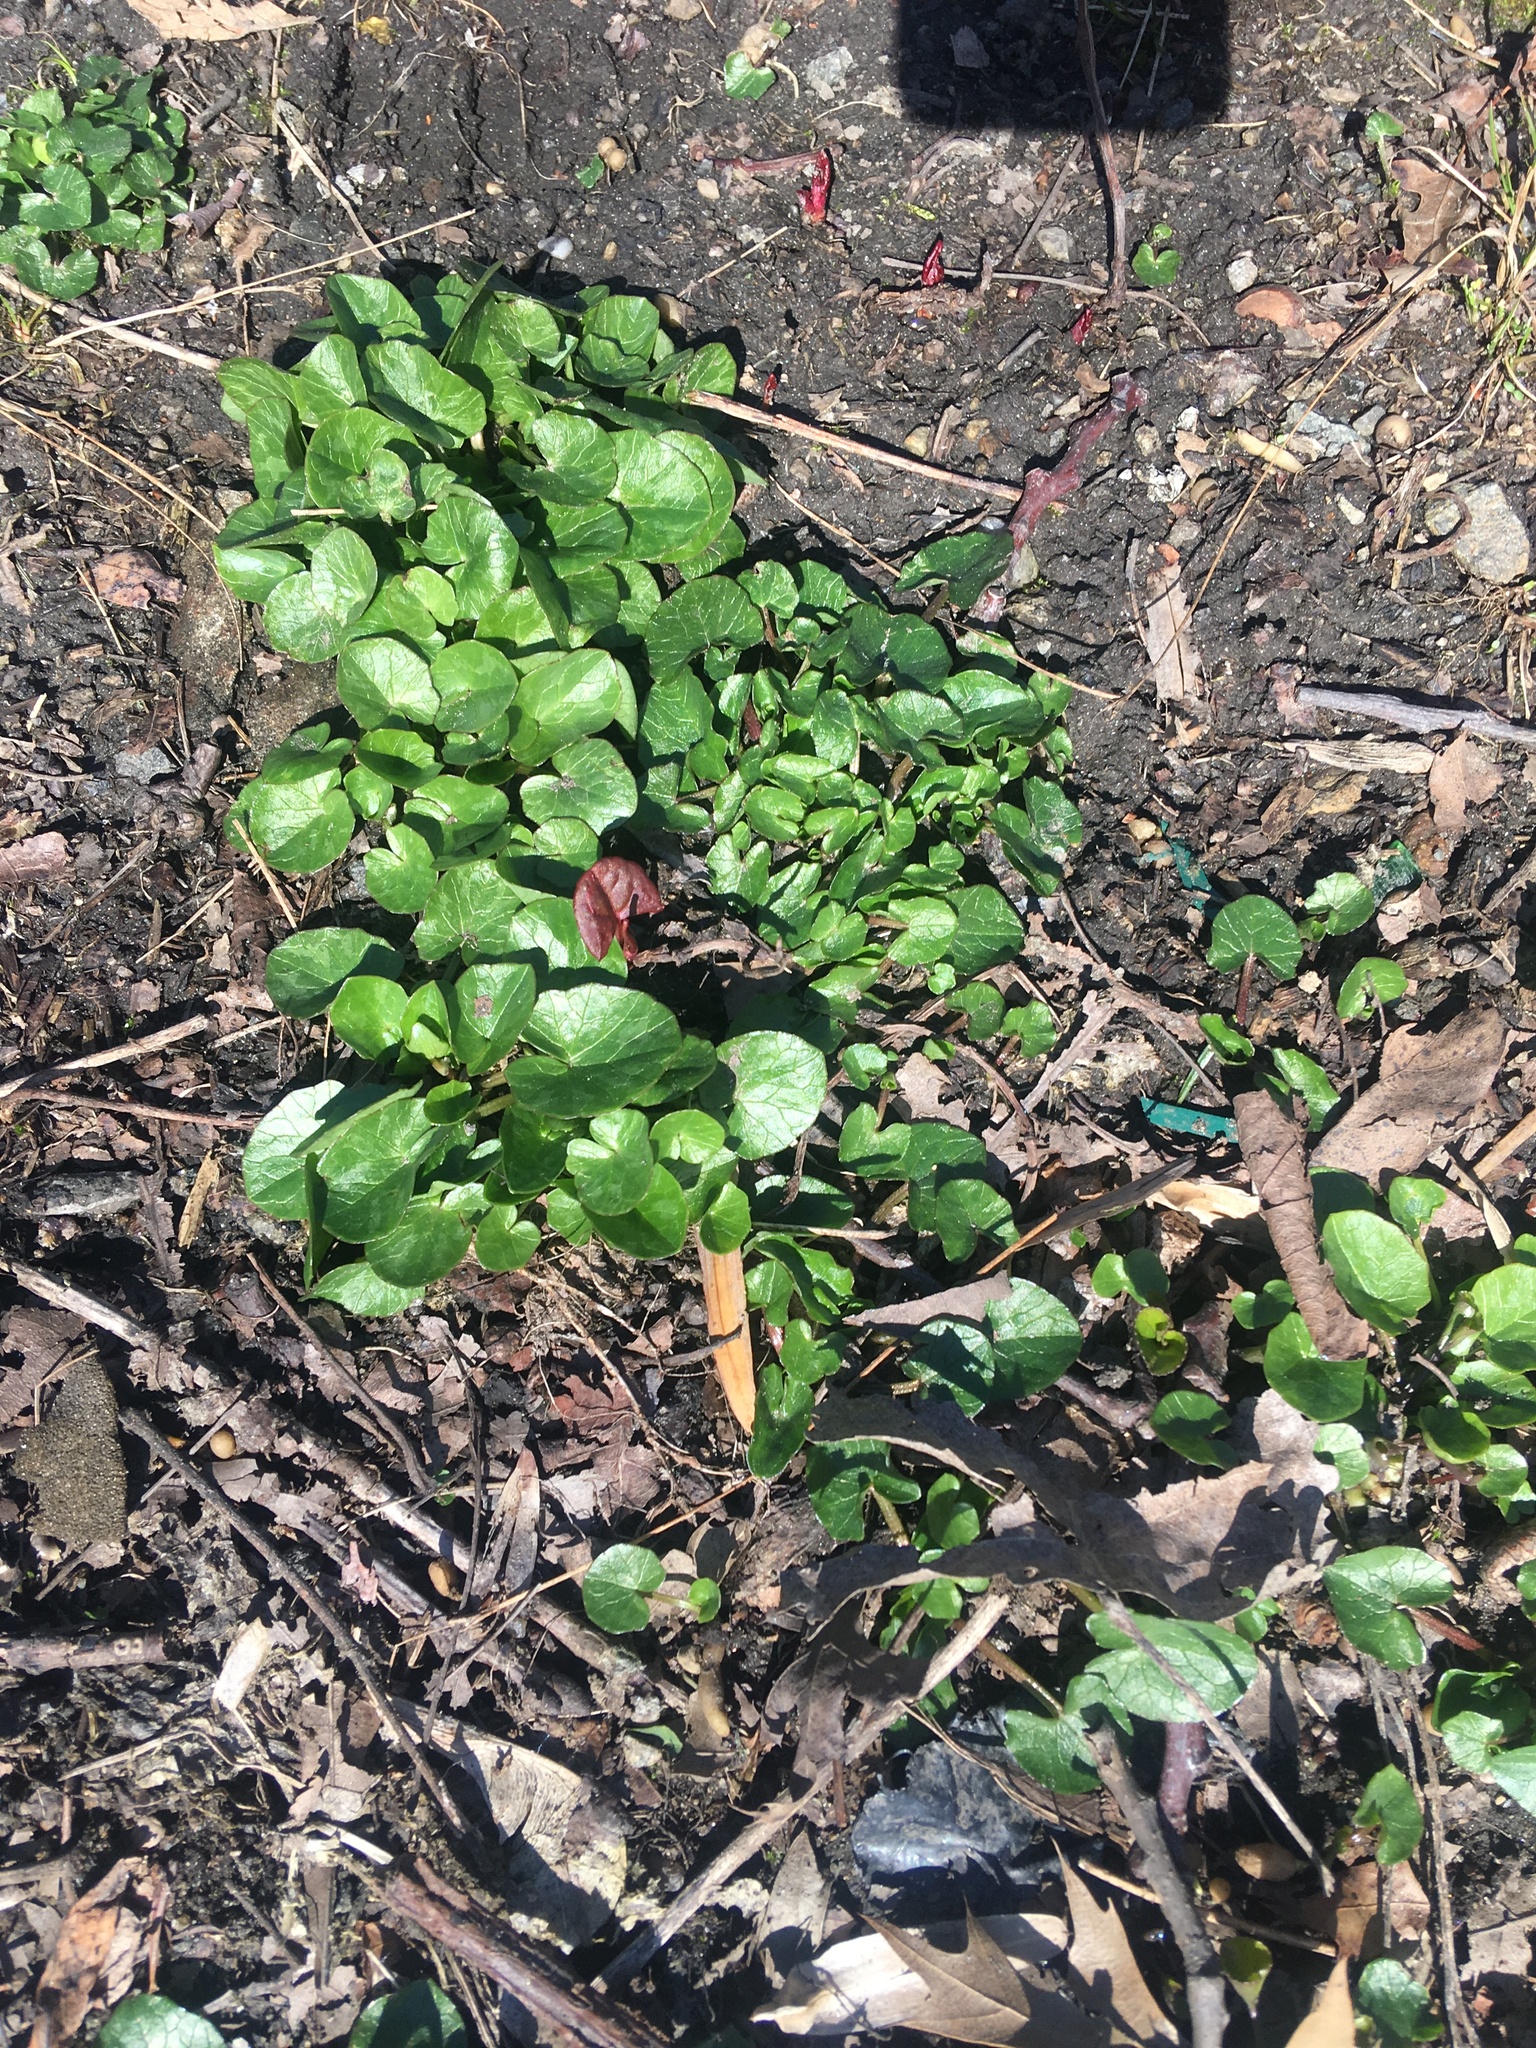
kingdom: Plantae
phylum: Tracheophyta
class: Magnoliopsida
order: Ranunculales
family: Ranunculaceae
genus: Ficaria
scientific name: Ficaria verna
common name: Lesser celandine
